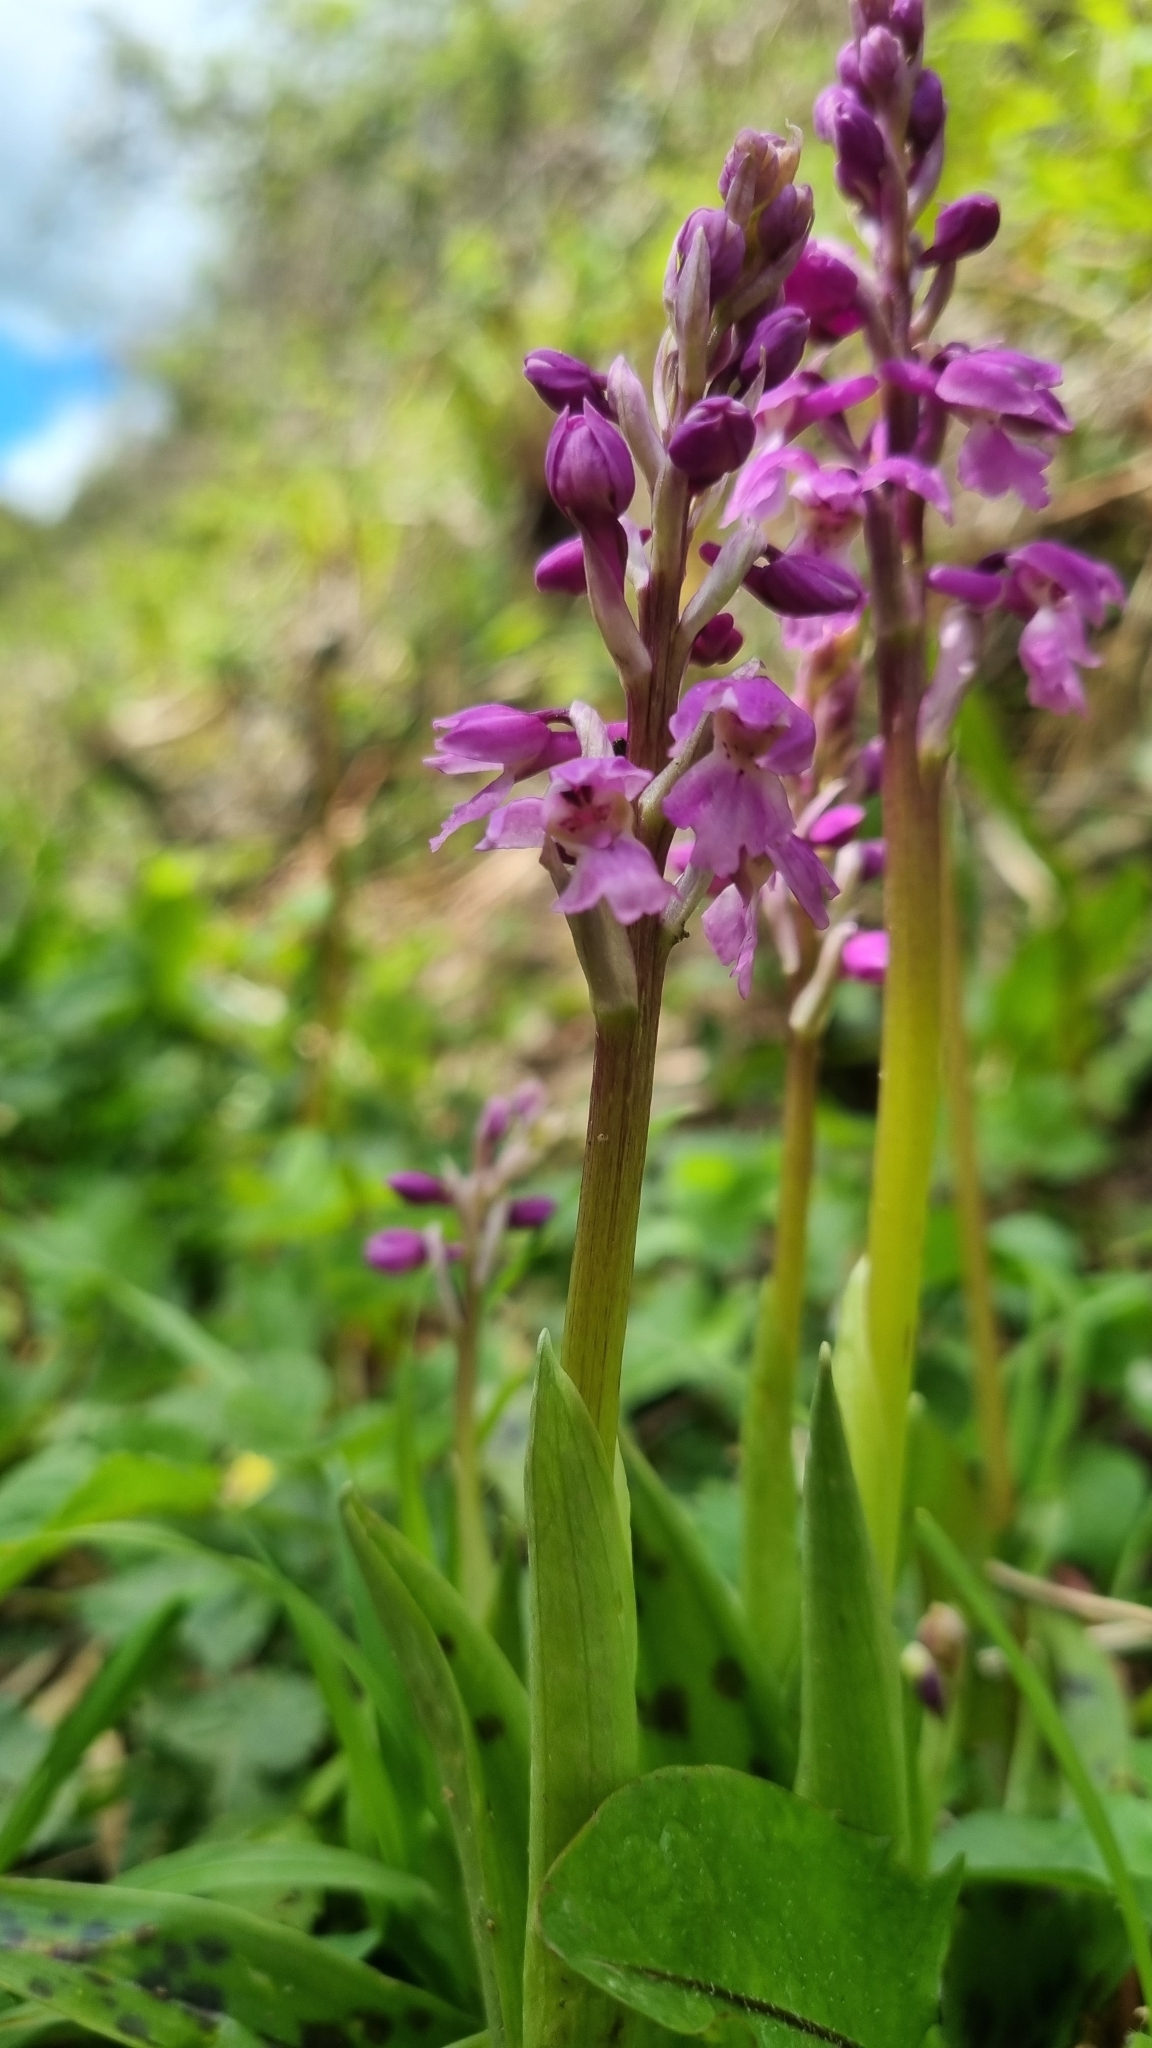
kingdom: Plantae
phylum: Tracheophyta
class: Liliopsida
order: Asparagales
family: Orchidaceae
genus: Orchis
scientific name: Orchis mascula
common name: Early-purple orchid
